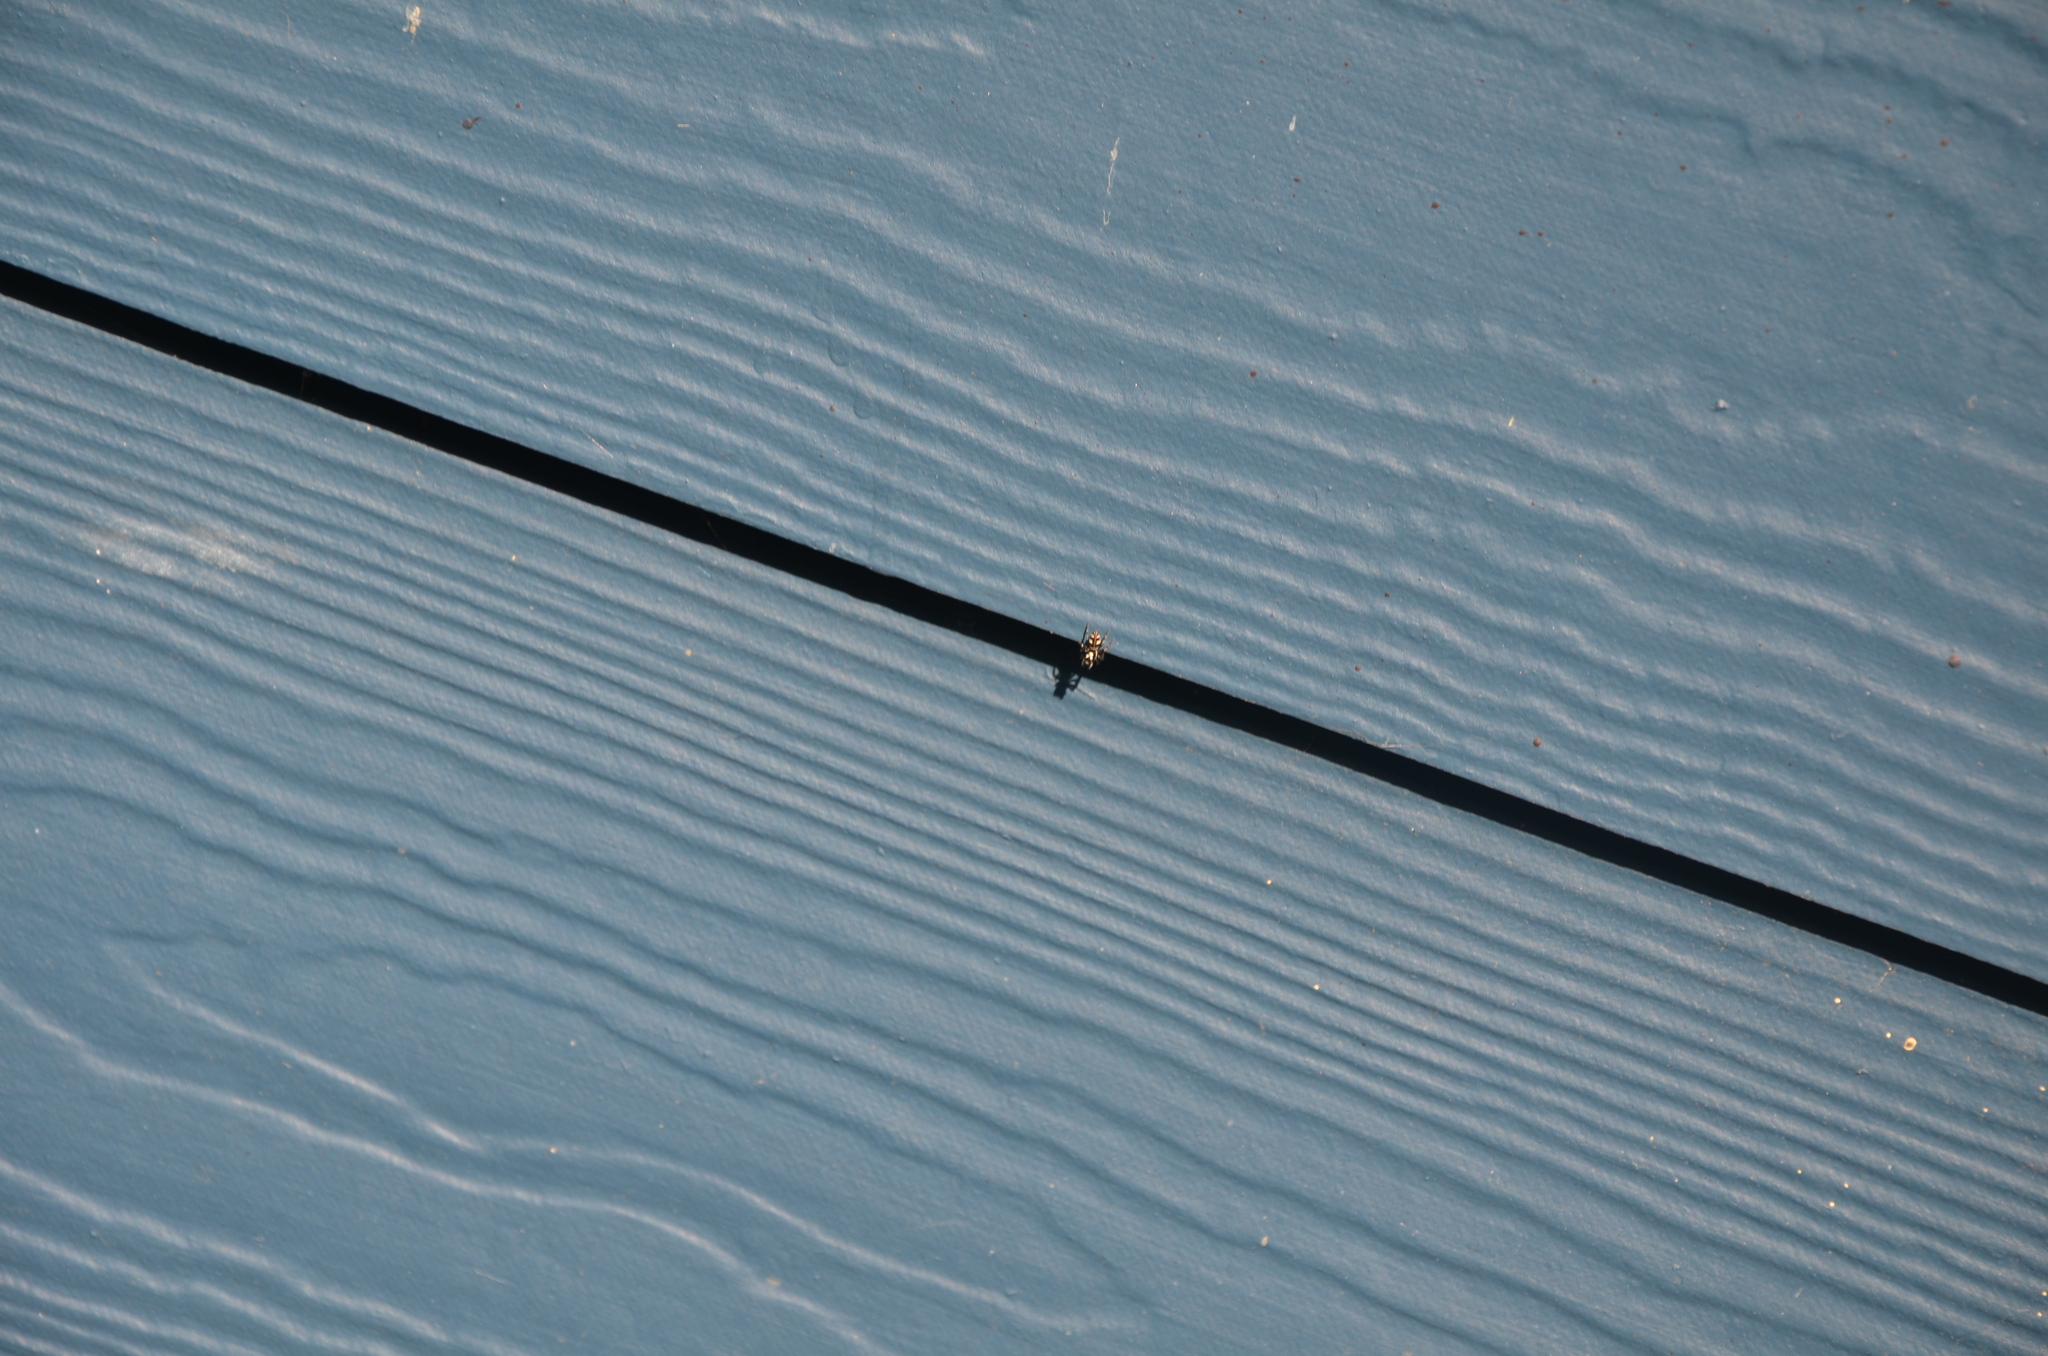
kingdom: Animalia
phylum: Arthropoda
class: Arachnida
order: Araneae
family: Salticidae
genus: Salticus
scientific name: Salticus scenicus
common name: Zebra jumper
